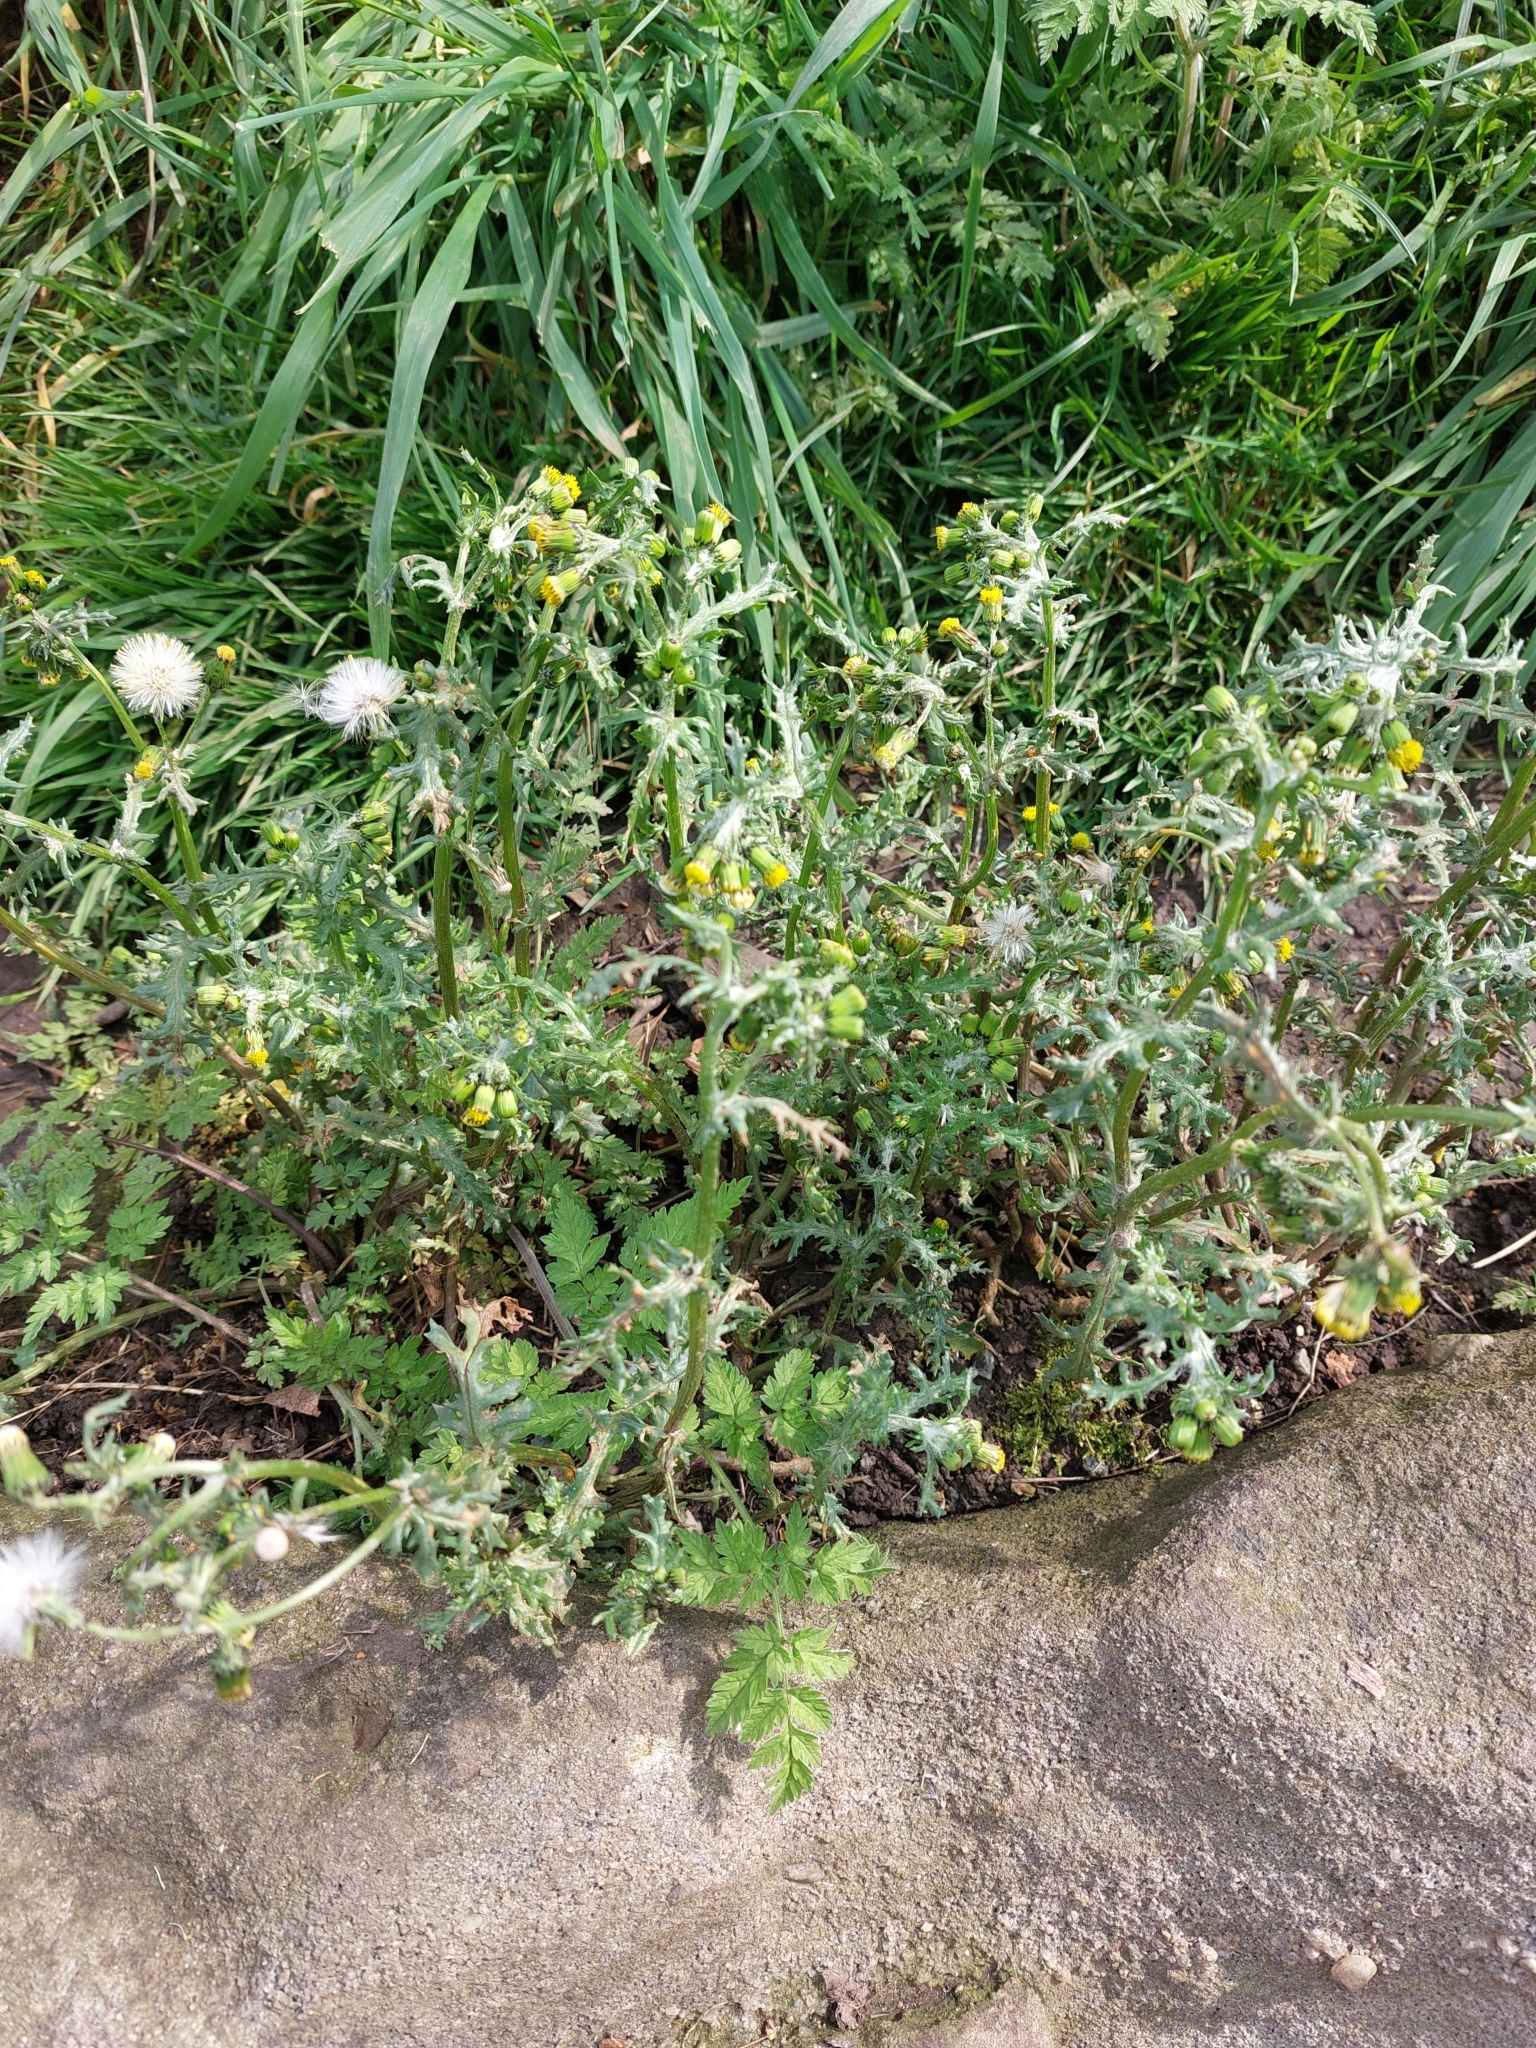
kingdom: Plantae
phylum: Tracheophyta
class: Magnoliopsida
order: Asterales
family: Asteraceae
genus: Senecio
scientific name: Senecio vulgaris
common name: Old-man-in-the-spring
